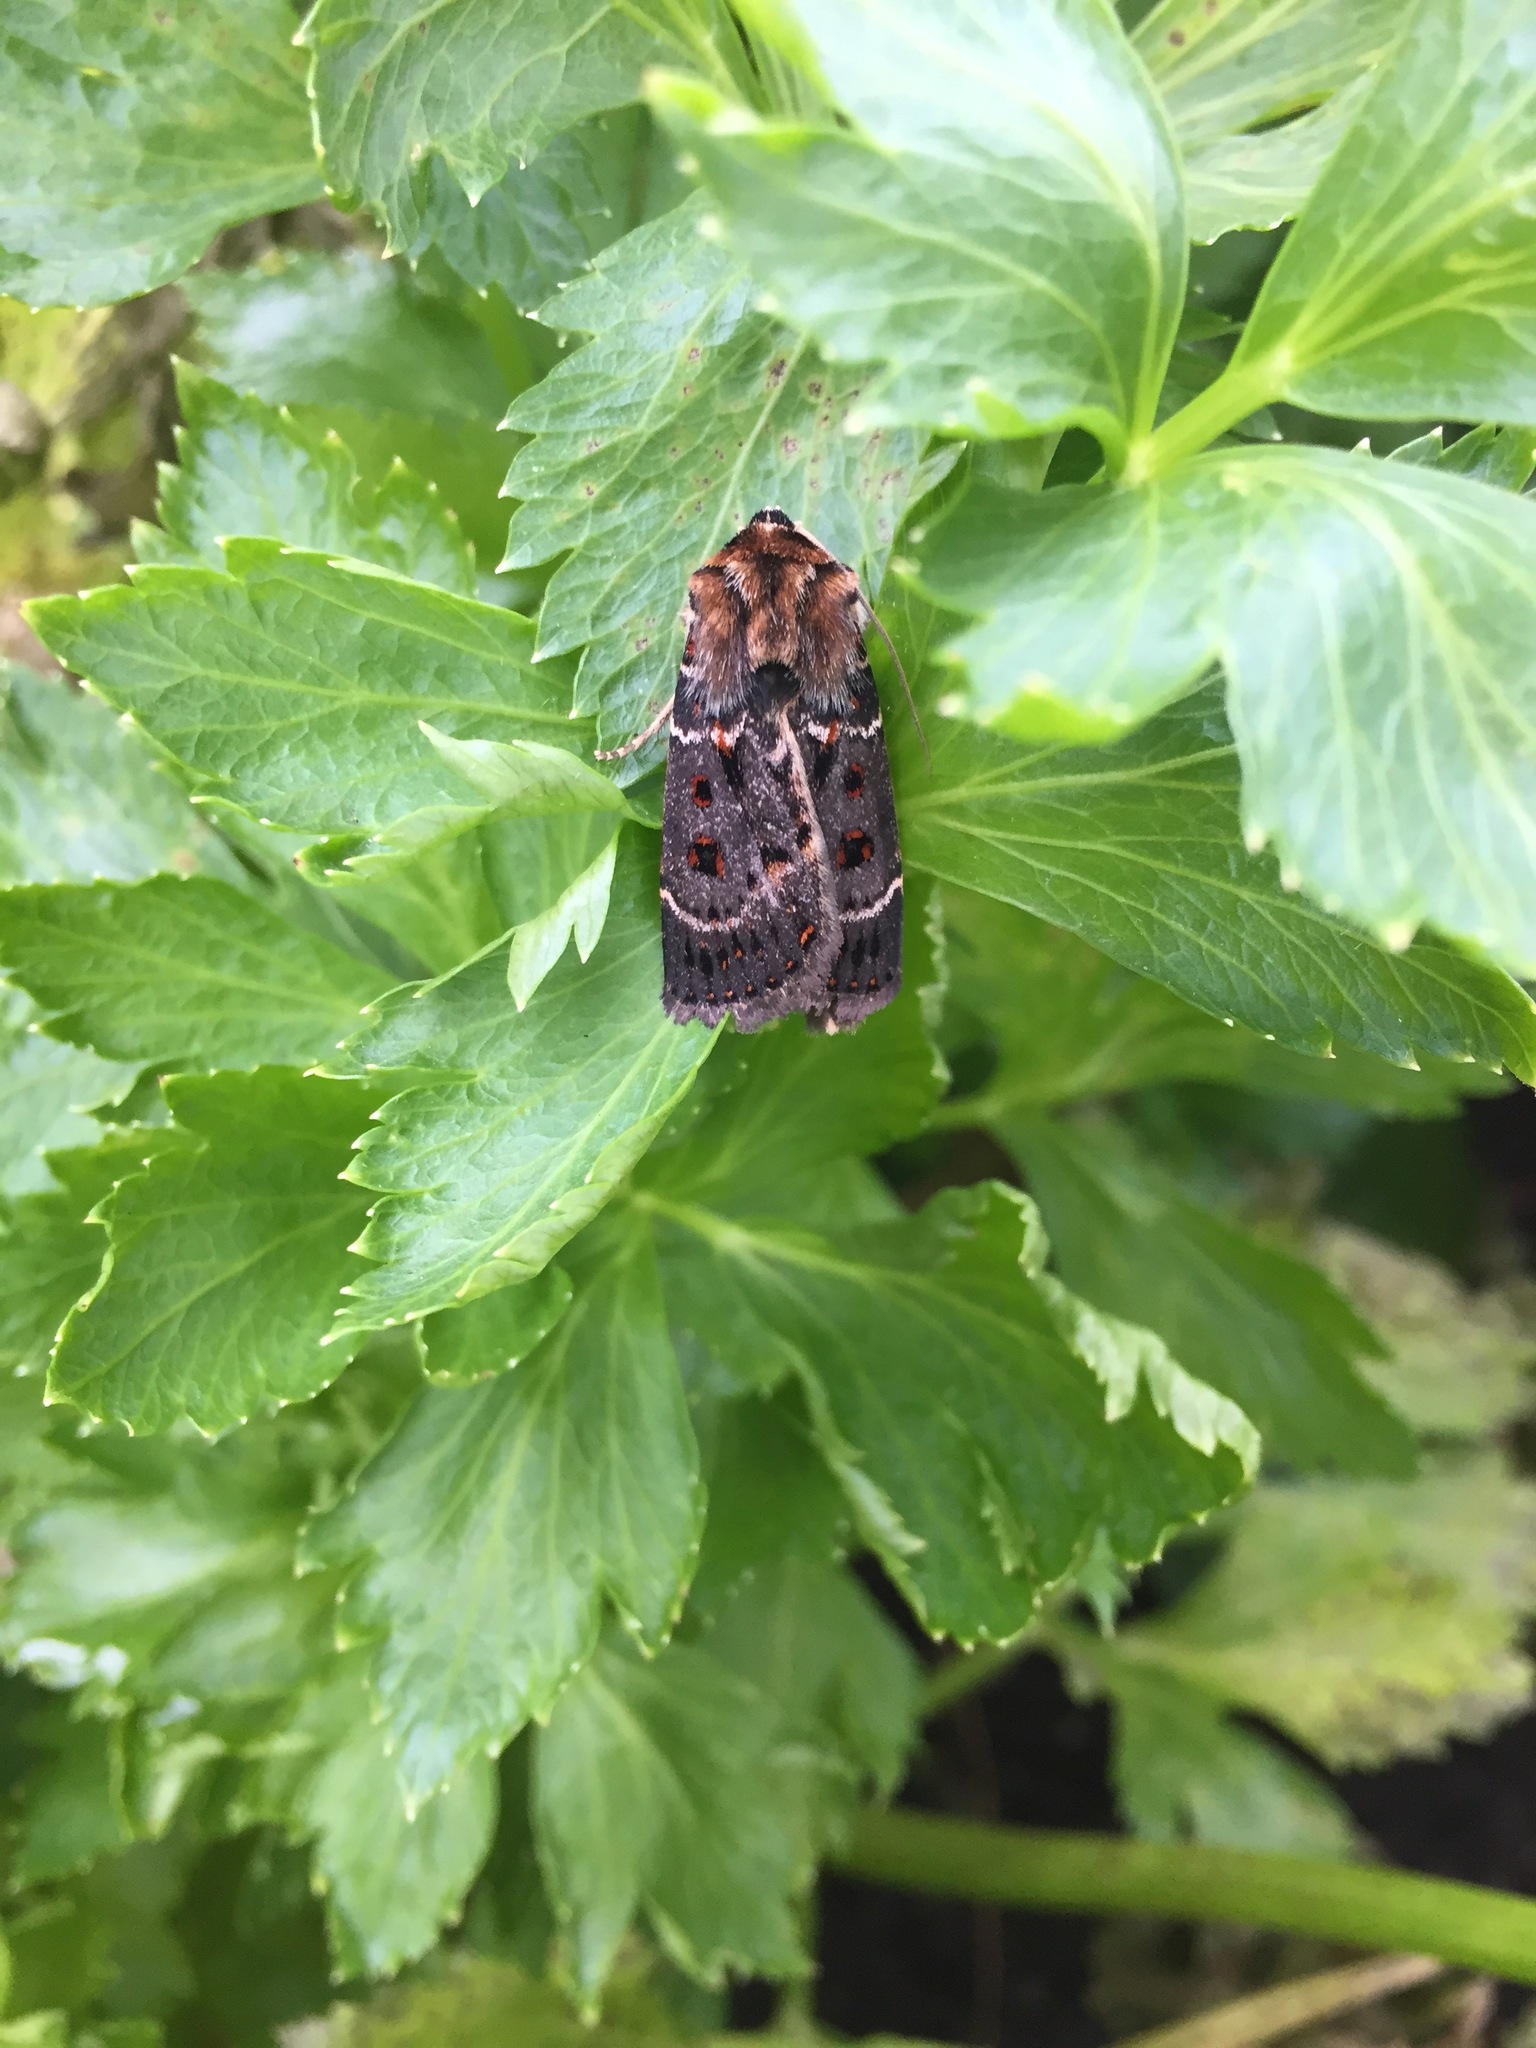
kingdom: Animalia
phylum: Arthropoda
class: Insecta
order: Lepidoptera
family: Noctuidae
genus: Proteuxoa
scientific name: Proteuxoa sanguinipuncta
